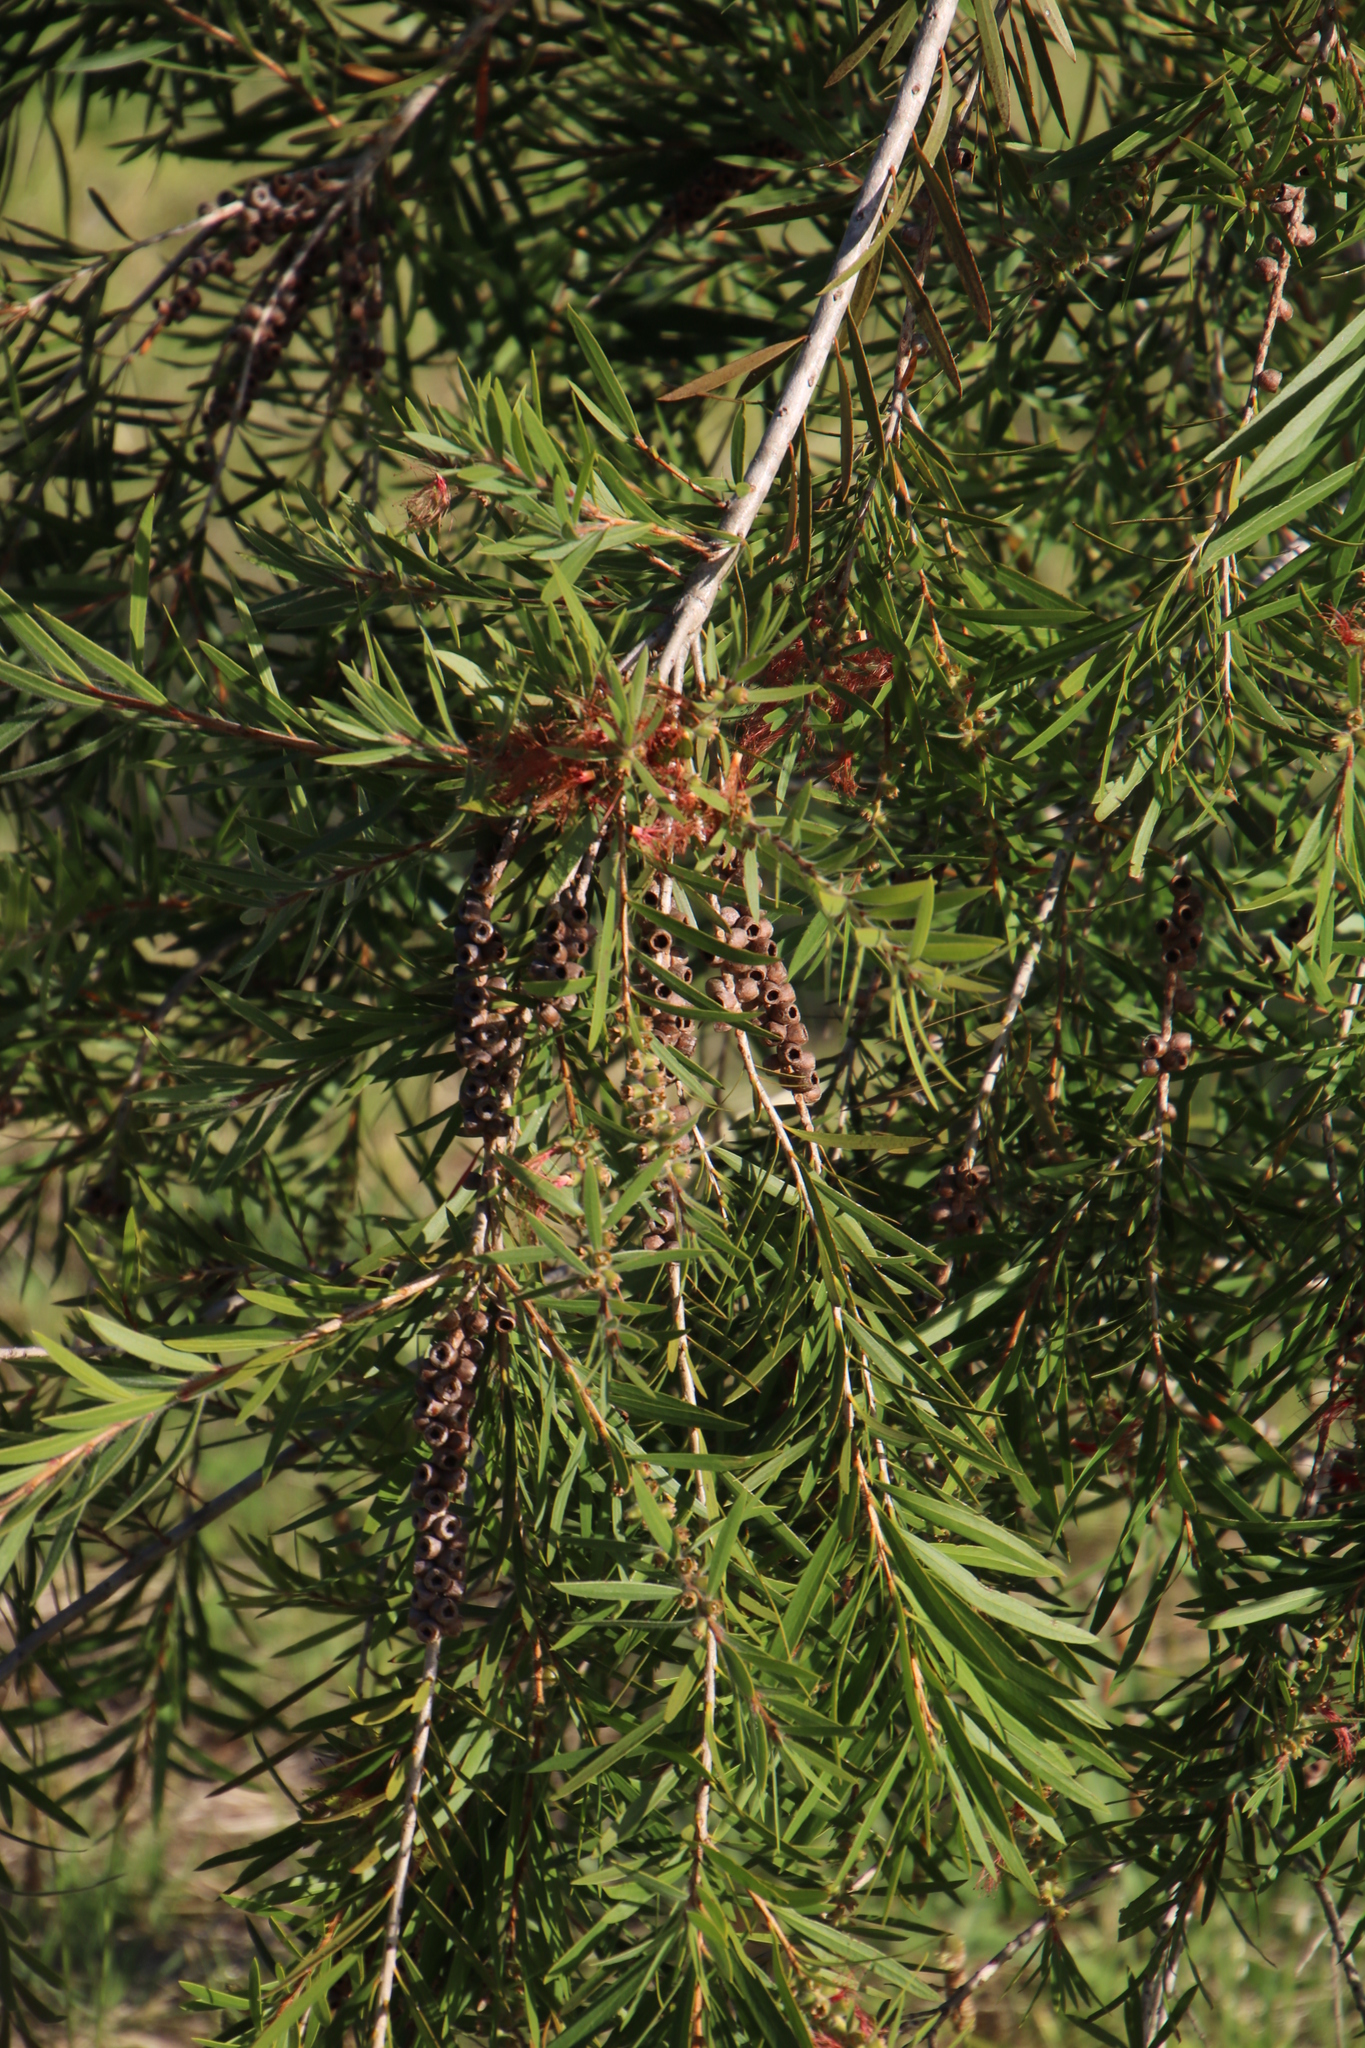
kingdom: Plantae
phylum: Tracheophyta
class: Magnoliopsida
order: Myrtales
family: Myrtaceae
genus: Callistemon
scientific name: Callistemon viminalis
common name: Drooping bottlebrush
